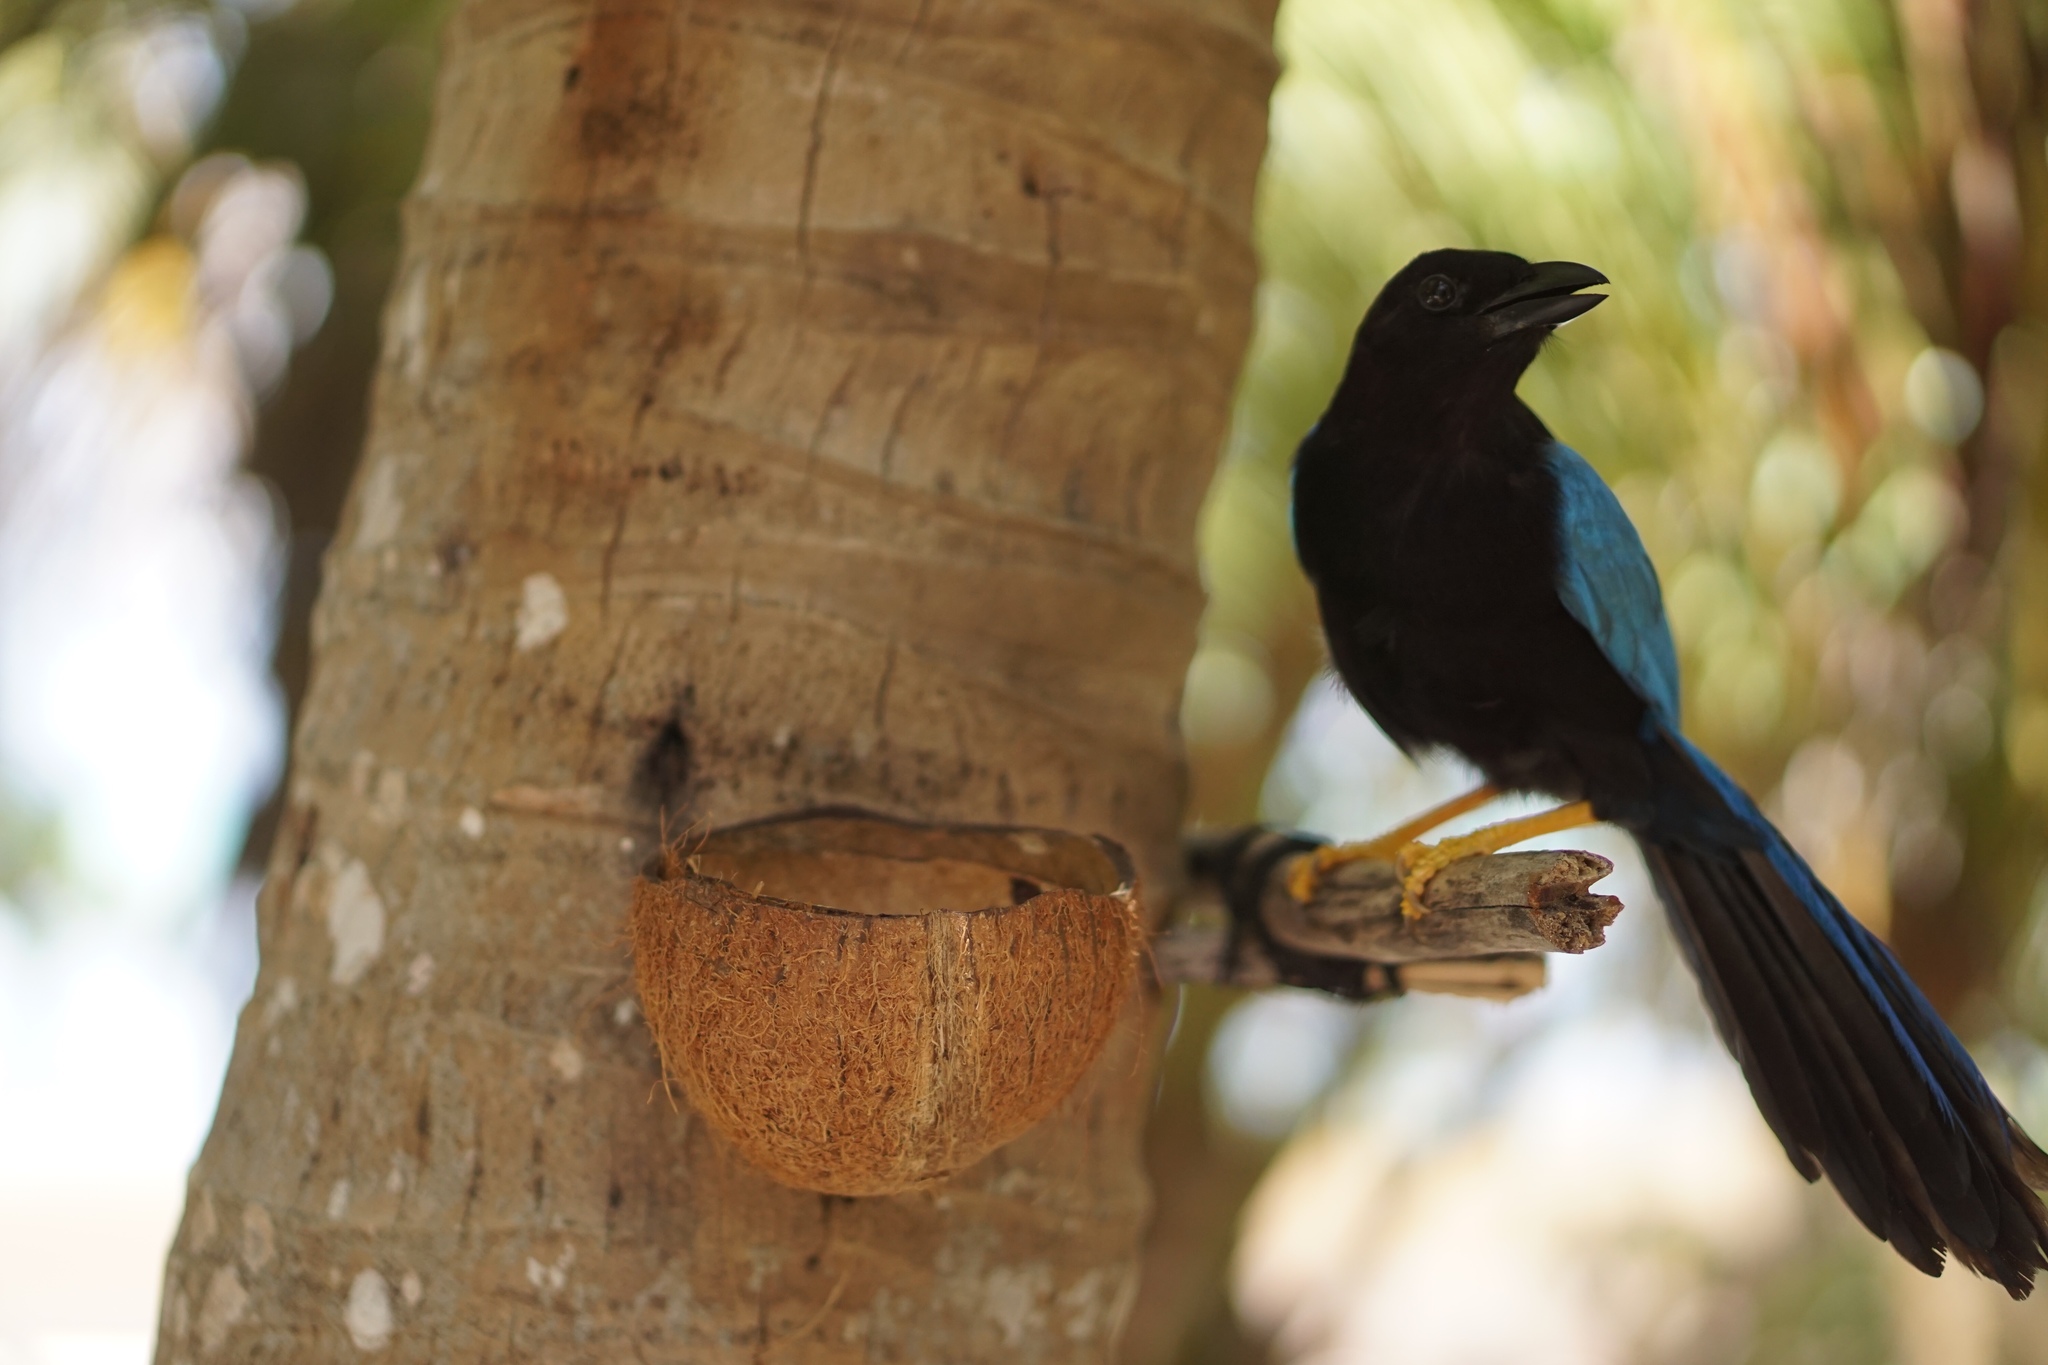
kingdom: Animalia
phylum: Chordata
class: Aves
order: Passeriformes
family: Corvidae
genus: Cyanocorax
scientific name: Cyanocorax yucatanicus
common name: Yucatan jay
